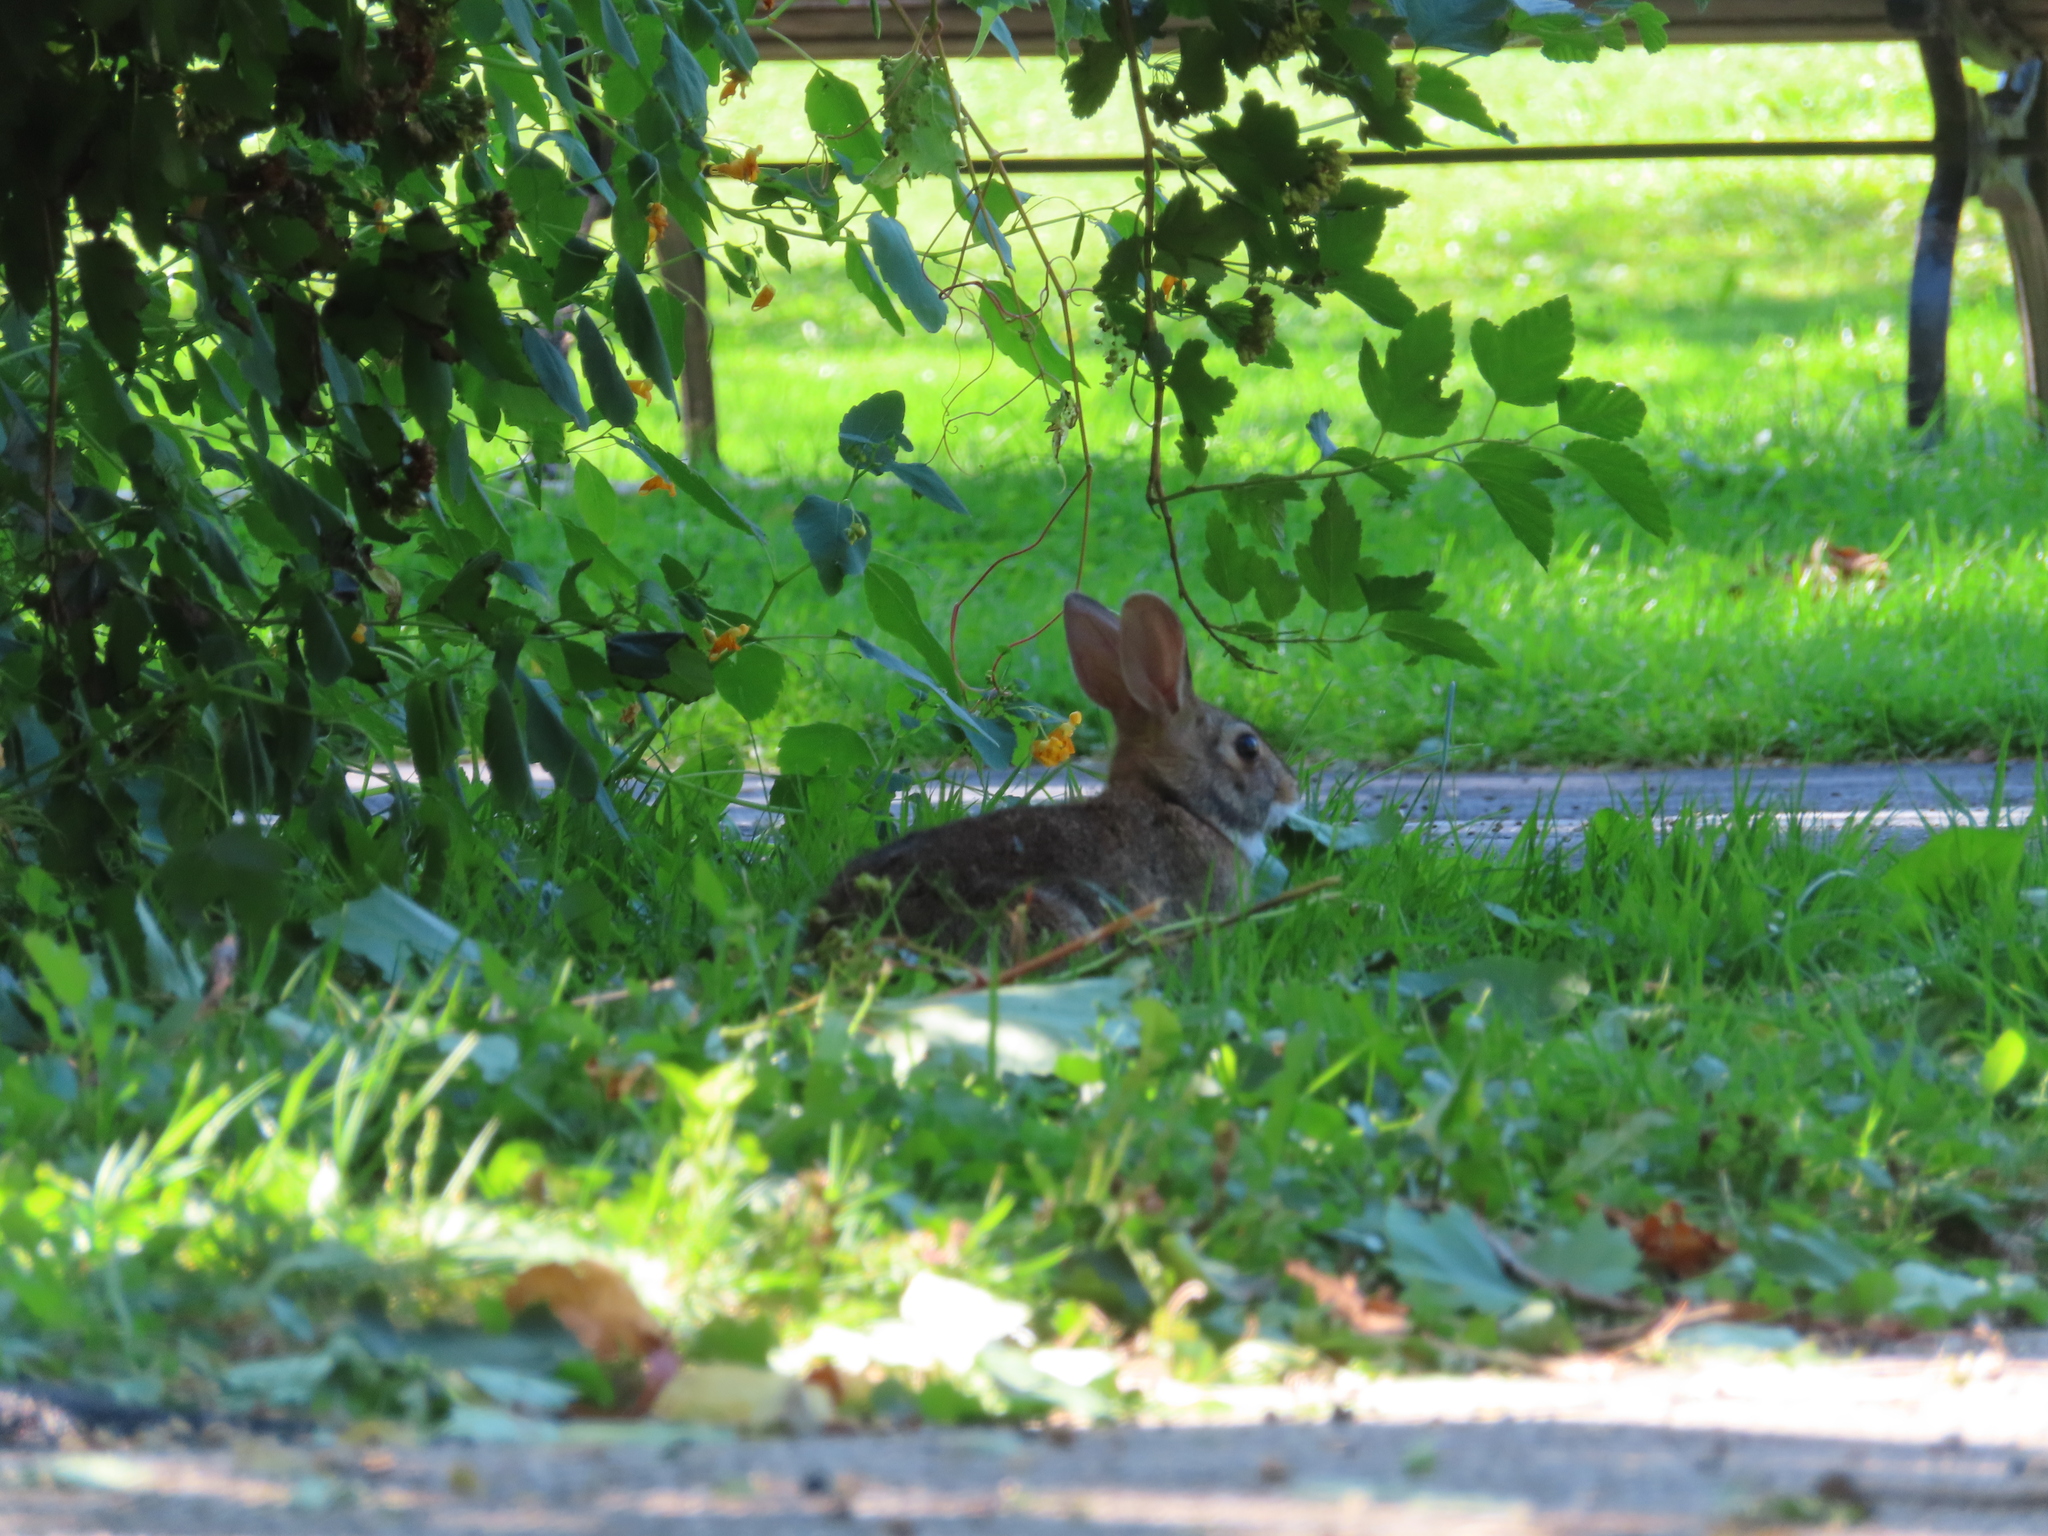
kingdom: Animalia
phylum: Chordata
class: Mammalia
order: Lagomorpha
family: Leporidae
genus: Sylvilagus
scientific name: Sylvilagus floridanus
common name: Eastern cottontail
